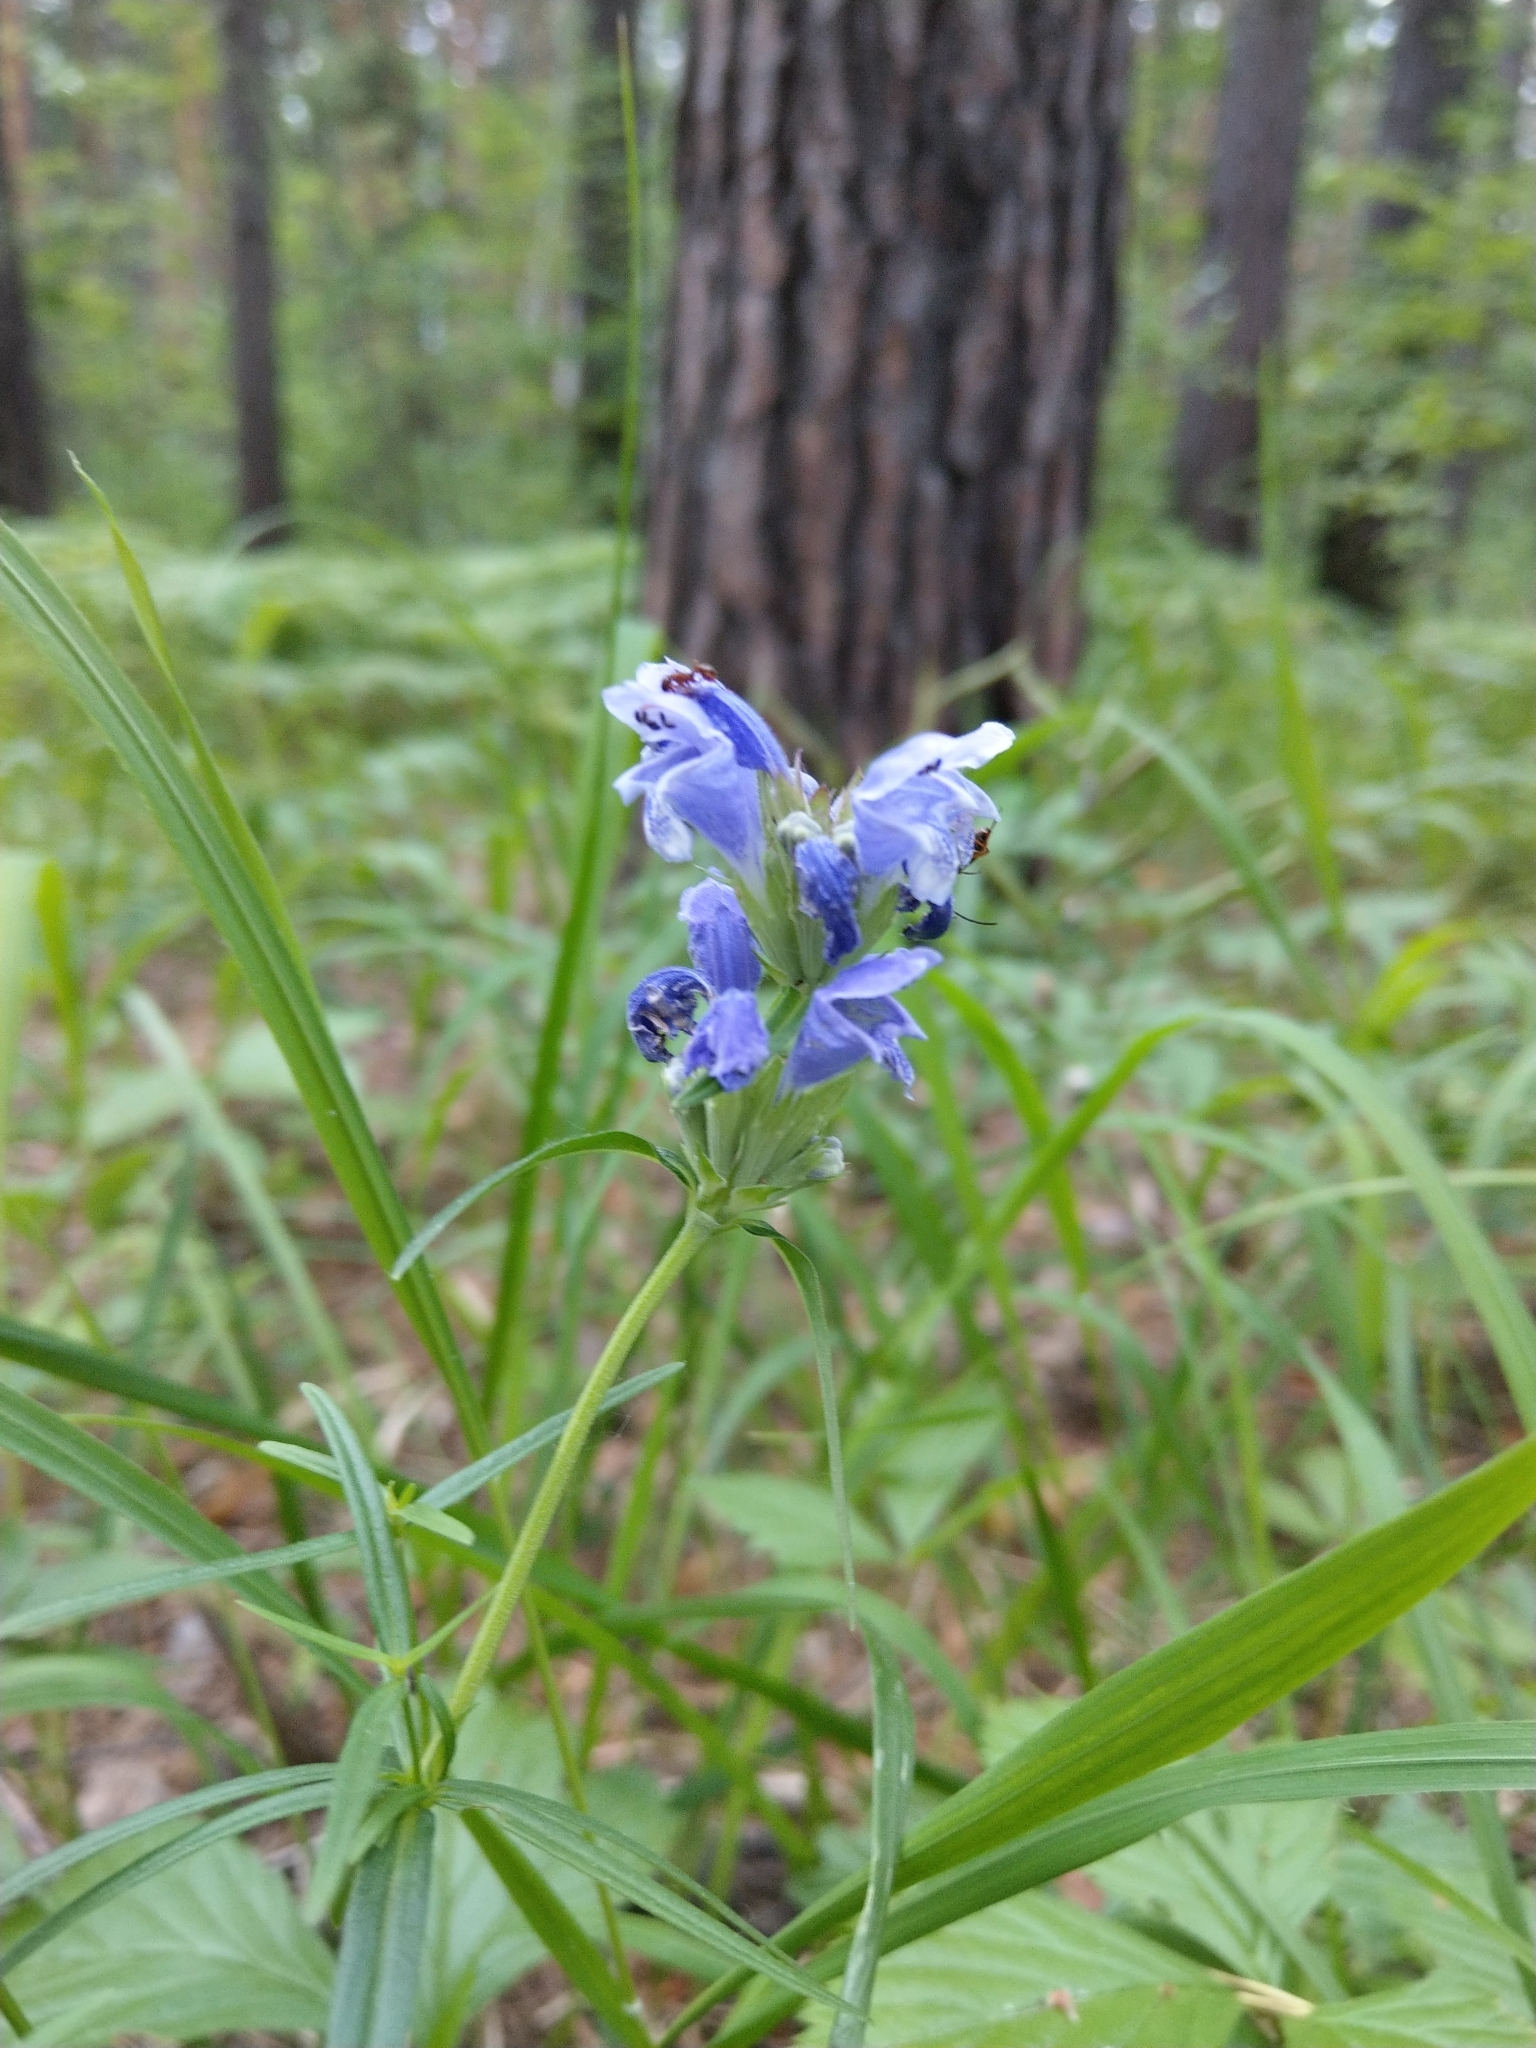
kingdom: Plantae
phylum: Tracheophyta
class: Magnoliopsida
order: Lamiales
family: Lamiaceae
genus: Dracocephalum
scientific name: Dracocephalum ruyschiana
